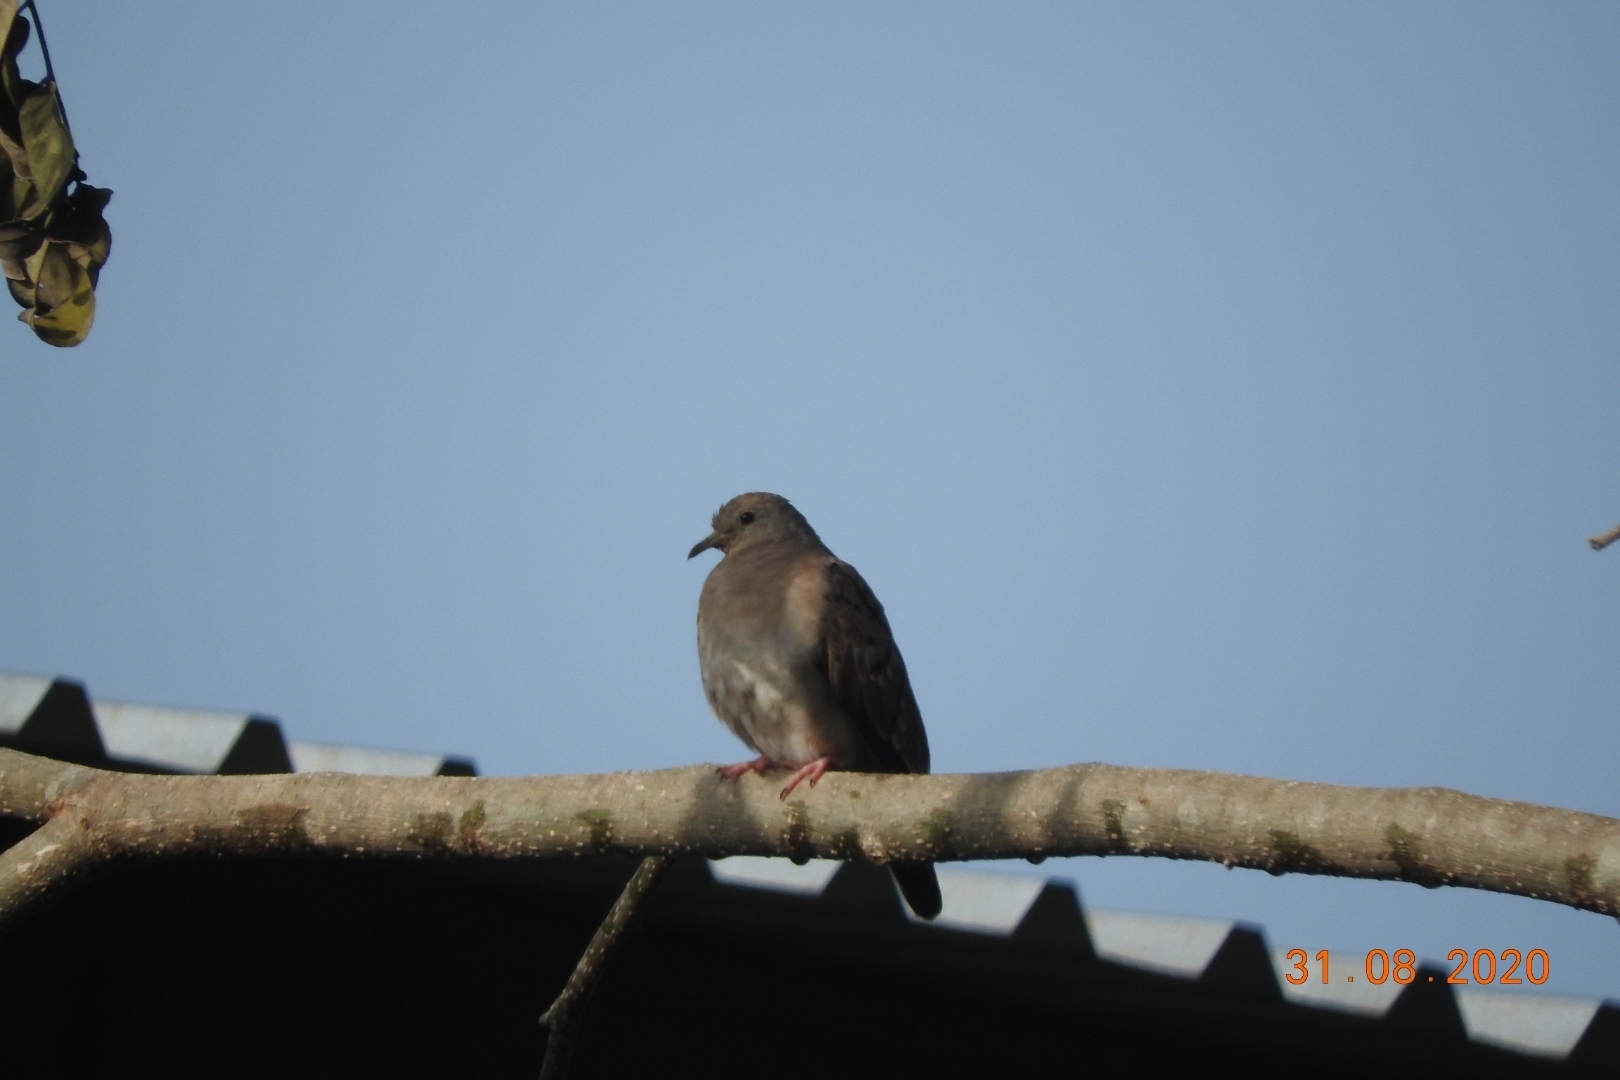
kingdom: Animalia
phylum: Chordata
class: Aves
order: Columbiformes
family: Columbidae
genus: Columbina
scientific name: Columbina talpacoti
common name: Ruddy ground dove
